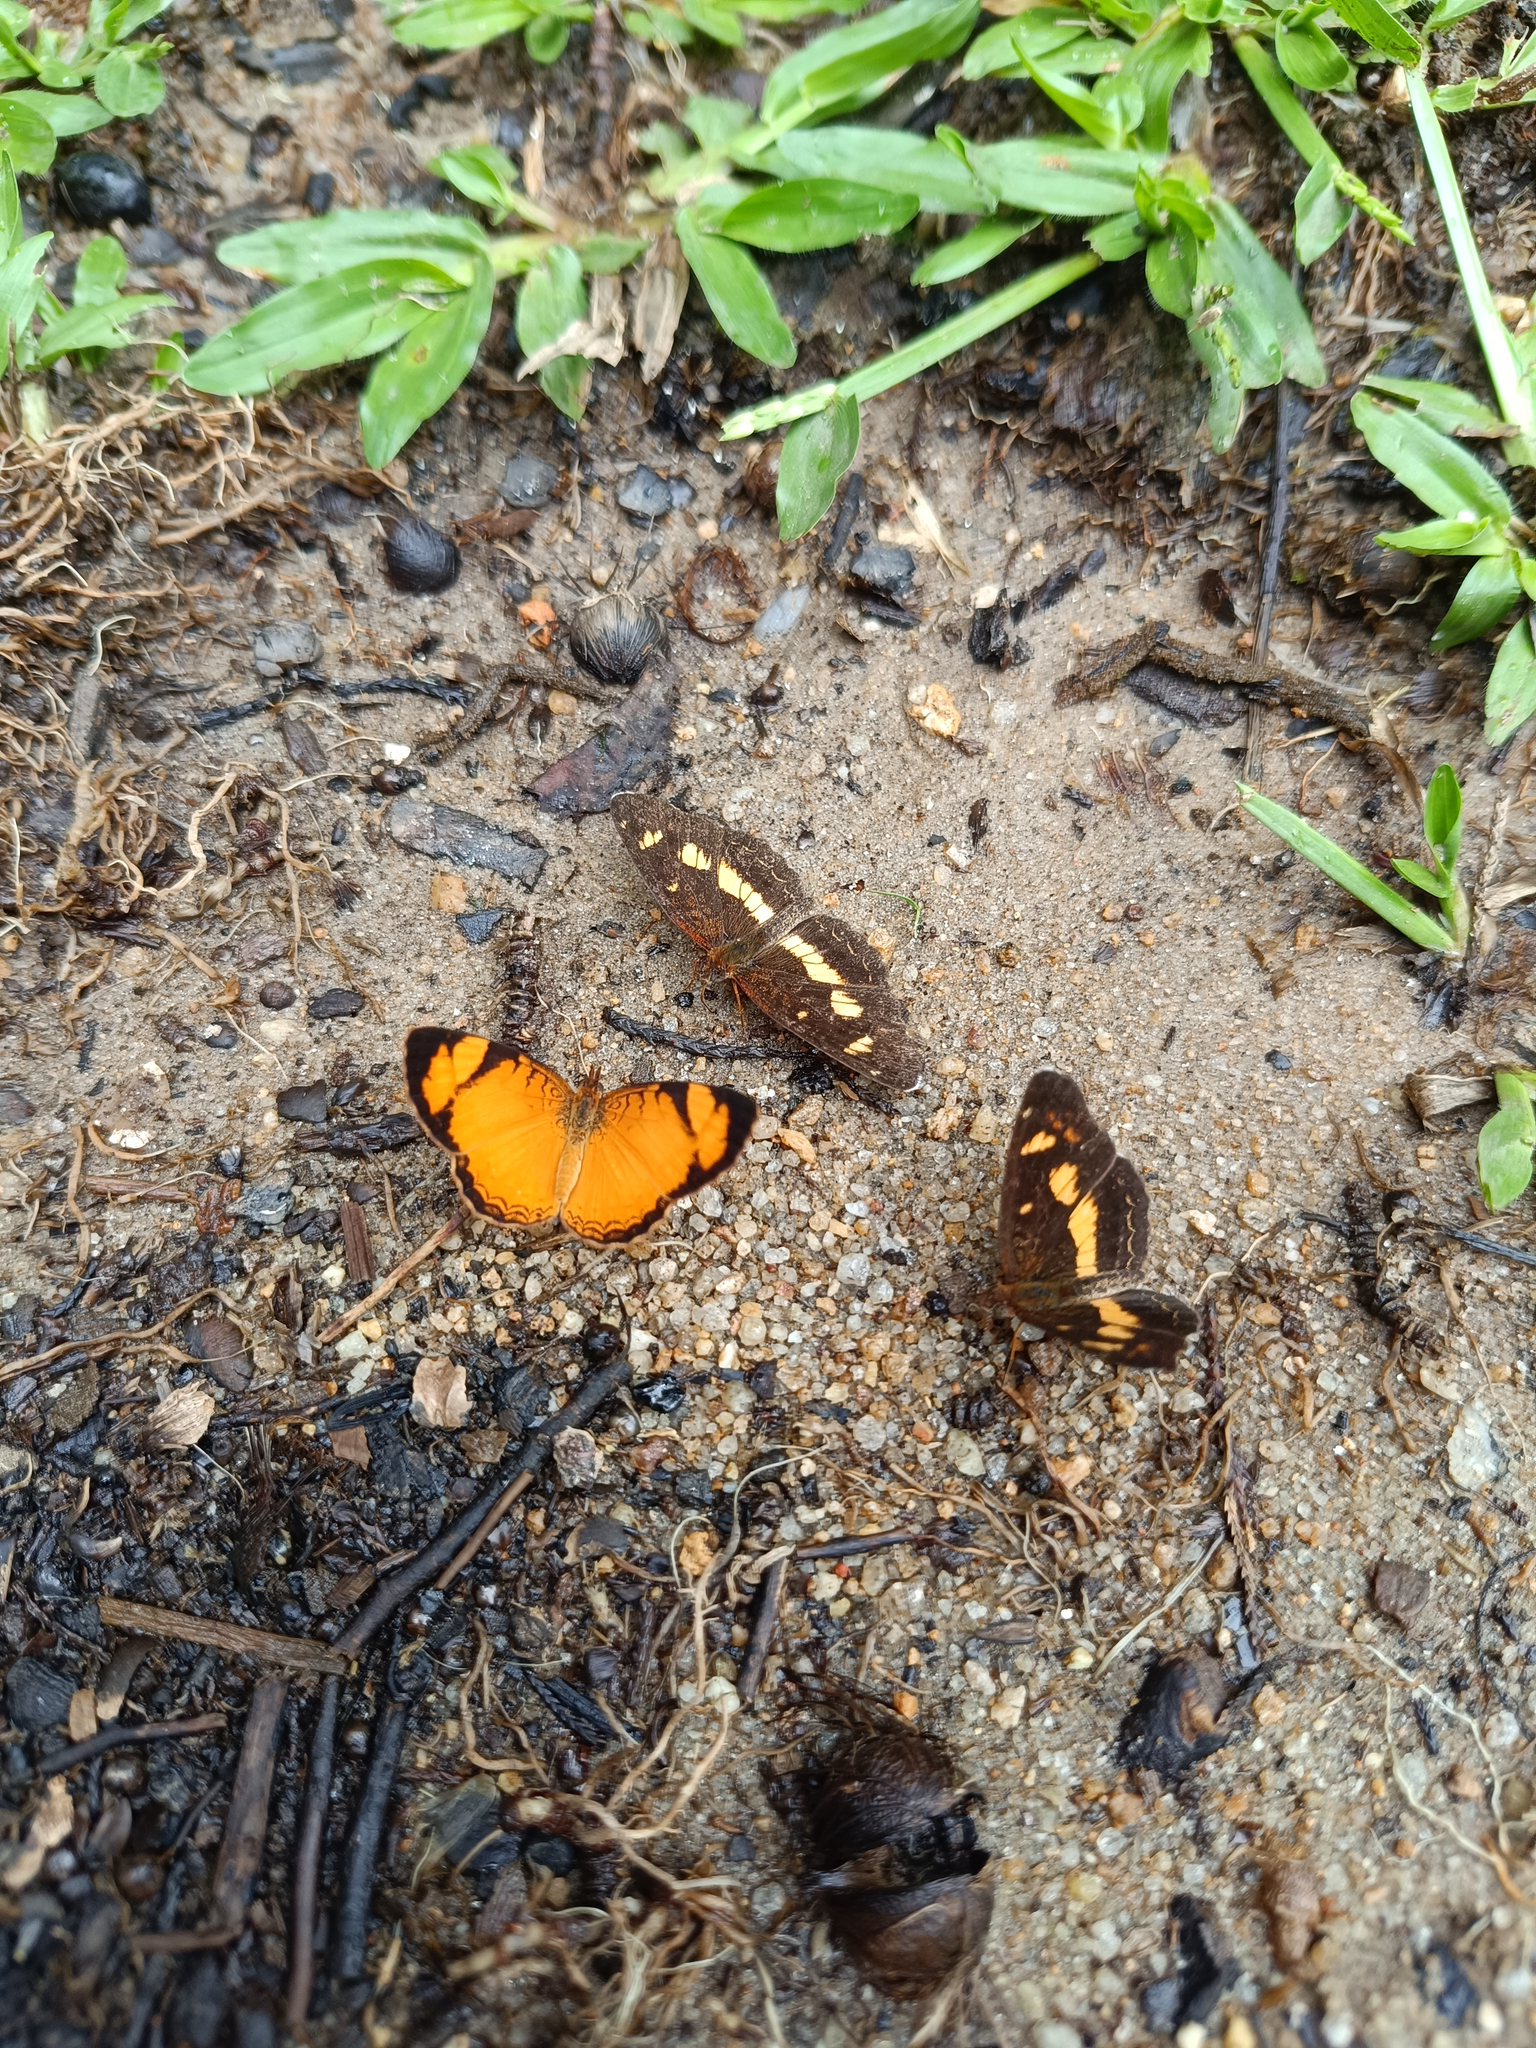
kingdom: Animalia
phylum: Arthropoda
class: Insecta
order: Lepidoptera
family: Nymphalidae
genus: Ortilia
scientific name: Ortilia orticas
